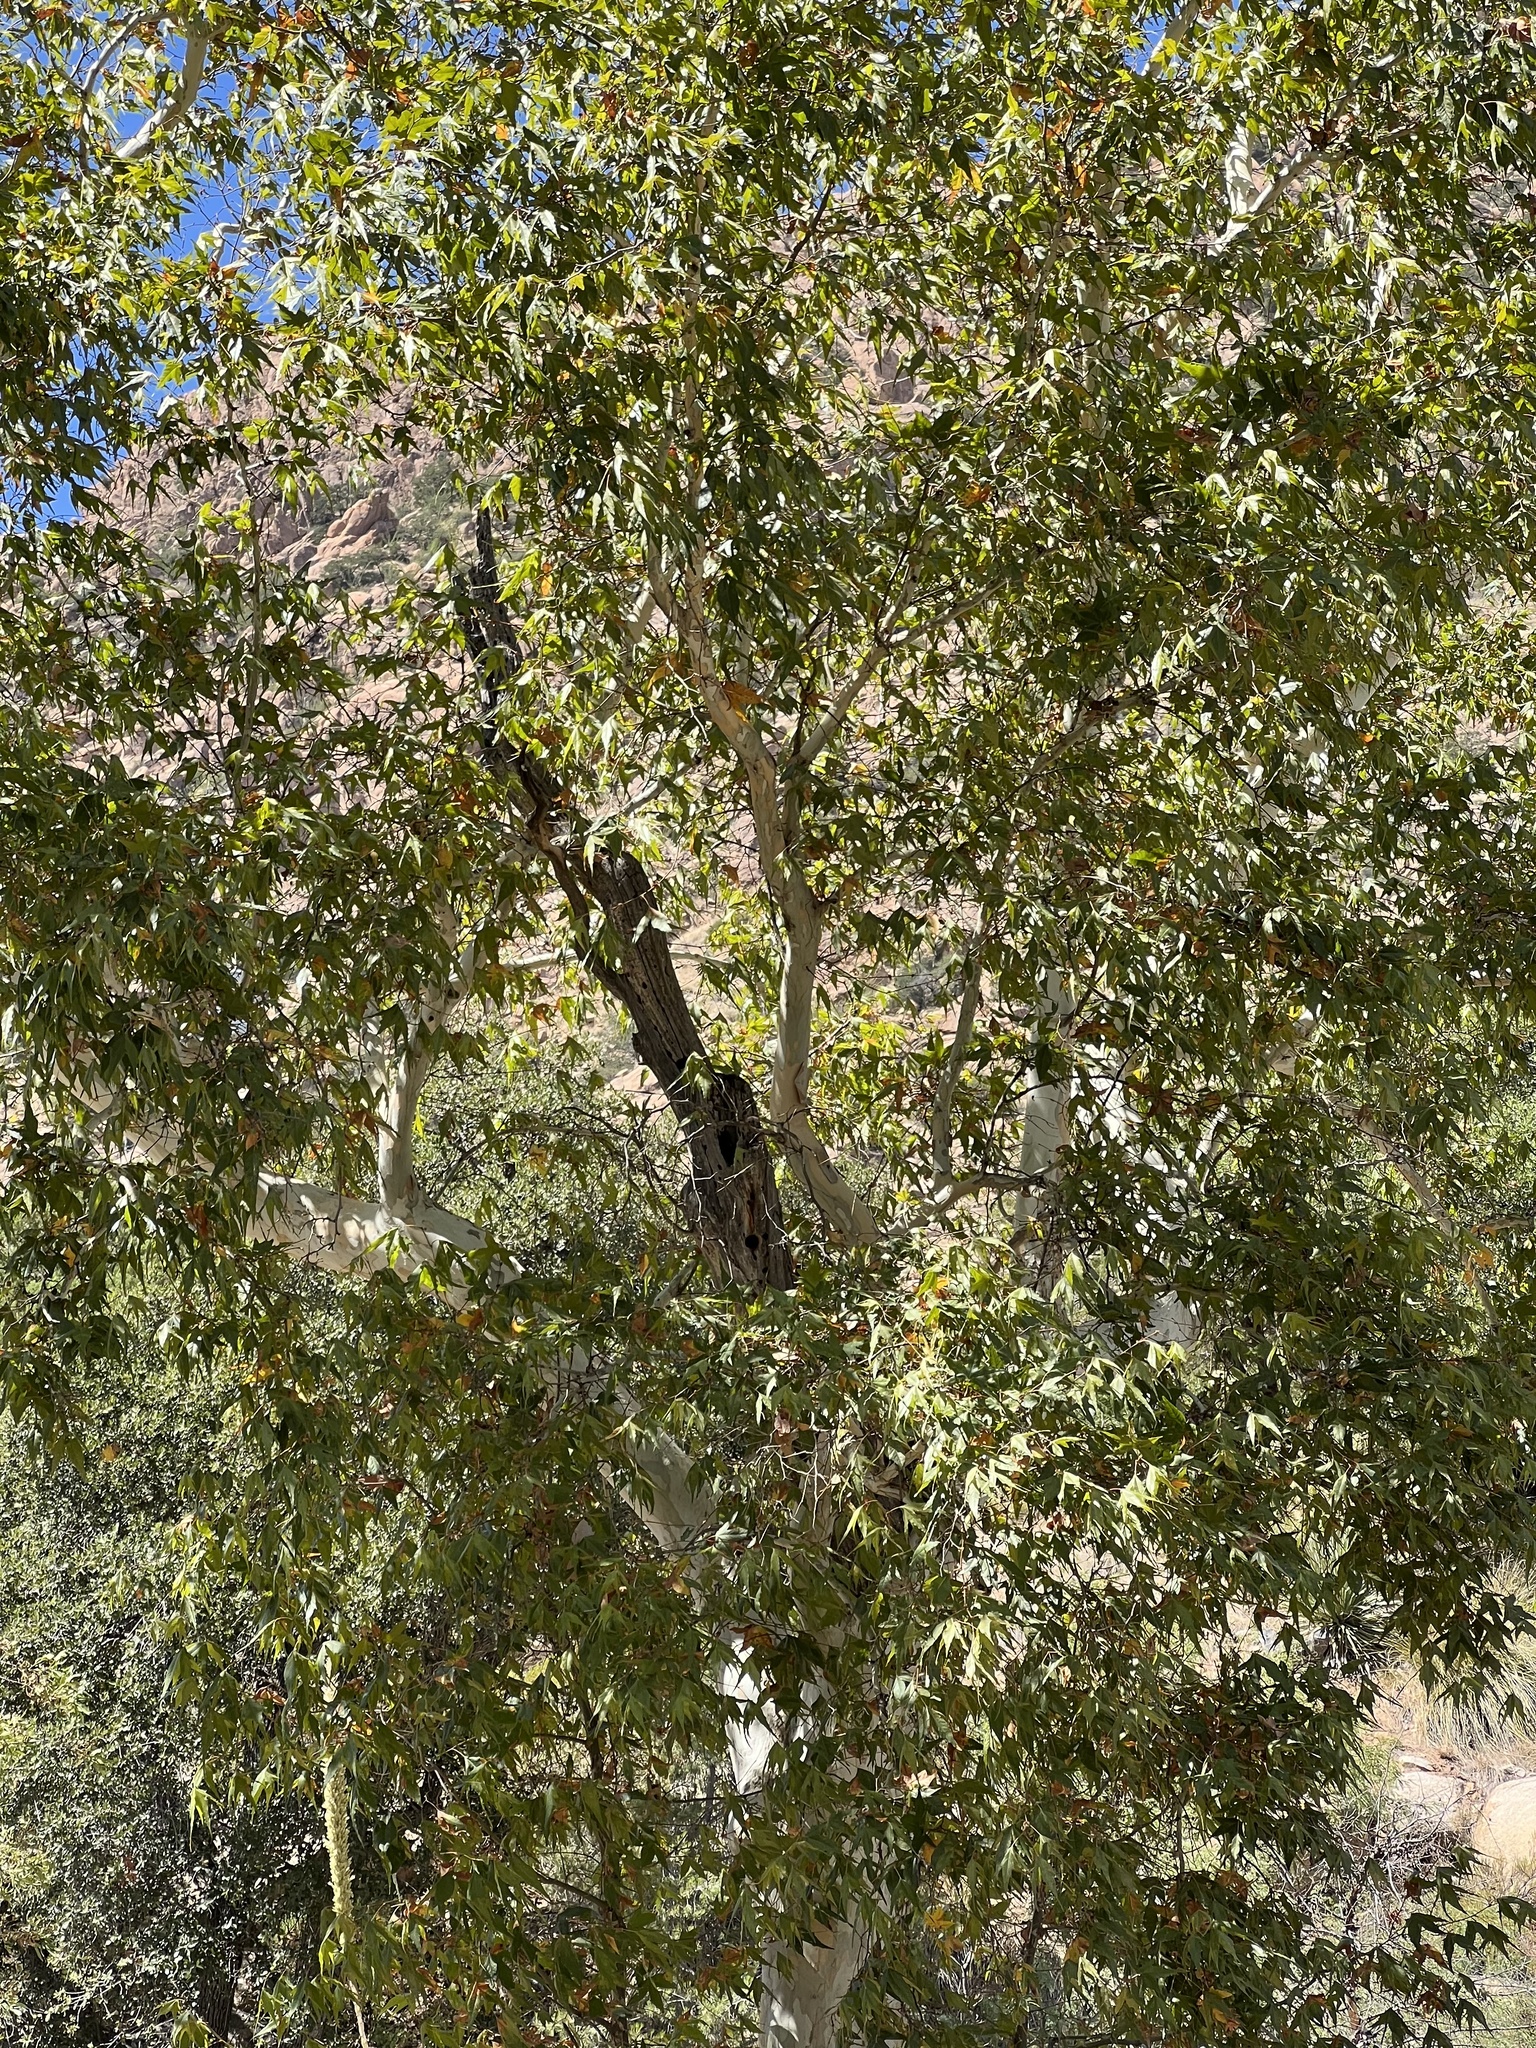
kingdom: Plantae
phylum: Tracheophyta
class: Magnoliopsida
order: Proteales
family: Platanaceae
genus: Platanus
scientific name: Platanus wrightii
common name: Arizona sycamore
